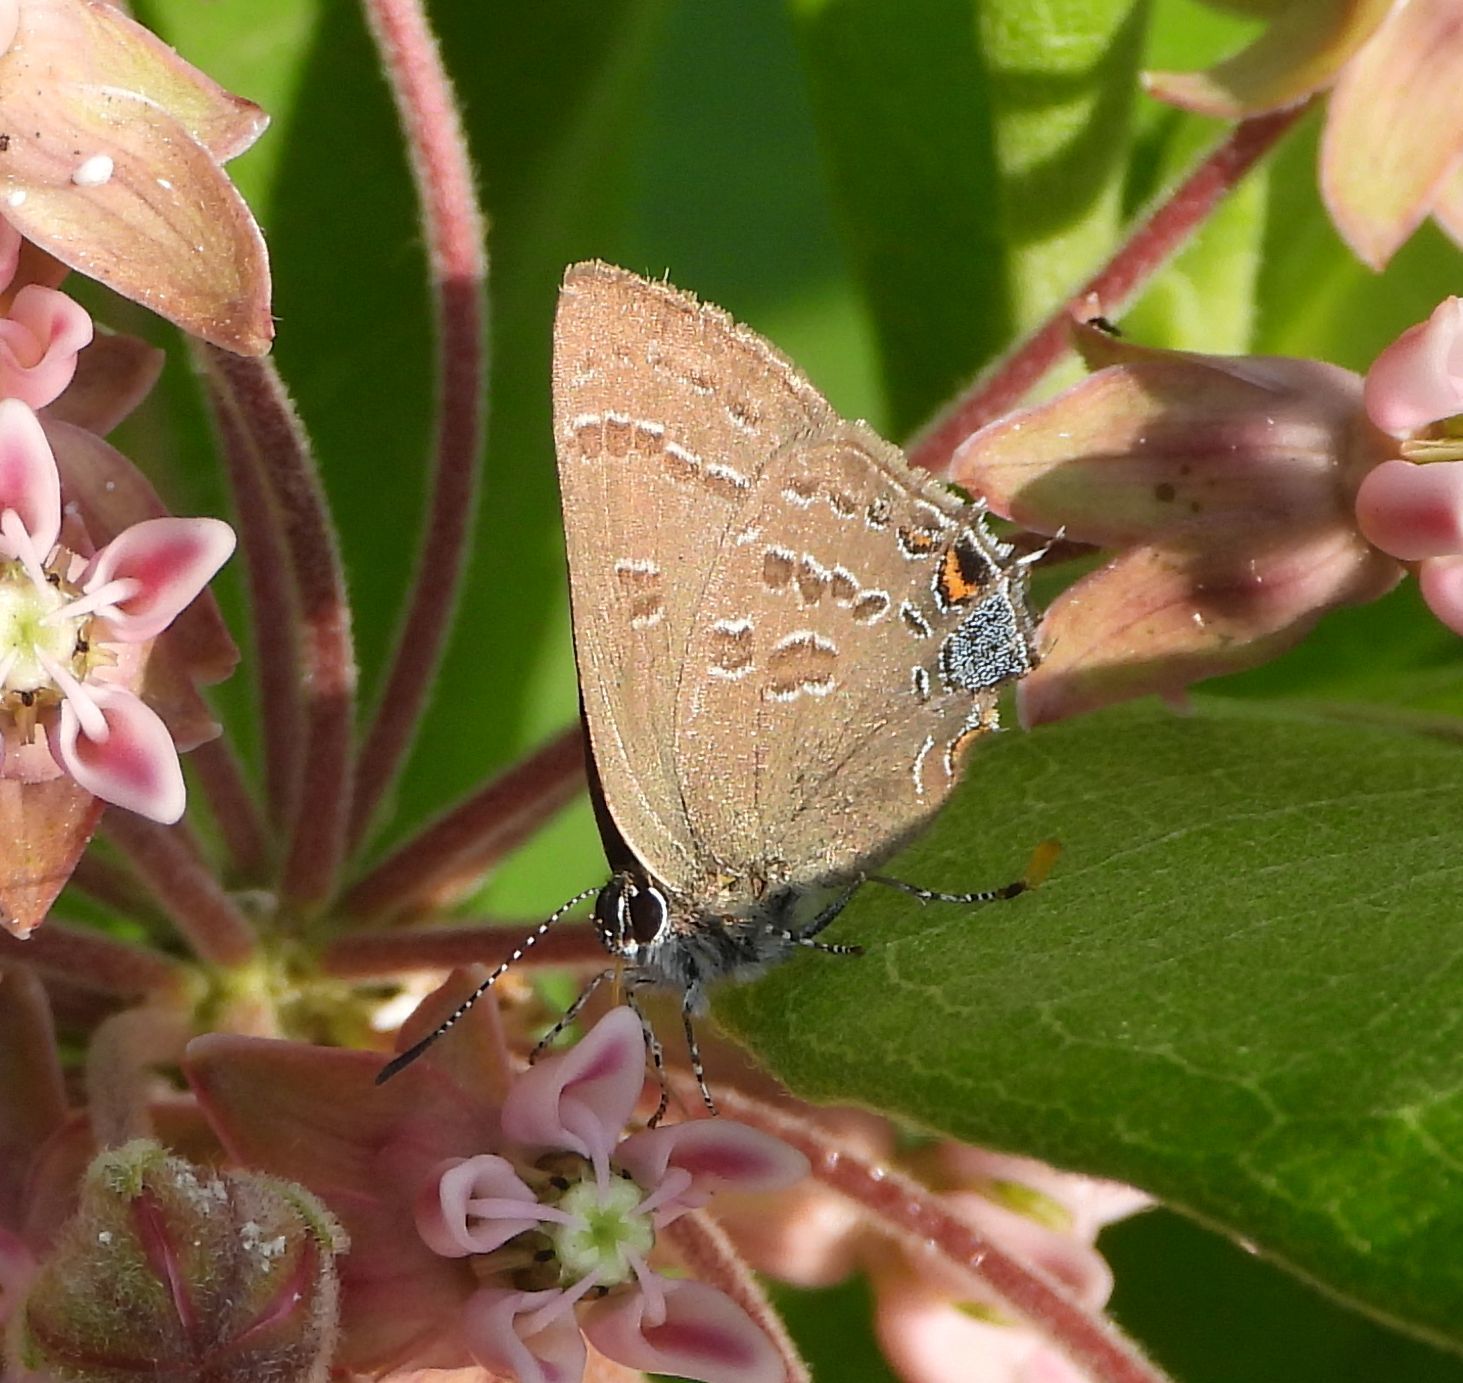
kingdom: Animalia
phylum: Arthropoda
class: Insecta
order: Lepidoptera
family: Lycaenidae
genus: Satyrium
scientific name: Satyrium calanus
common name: Banded hairstreak
